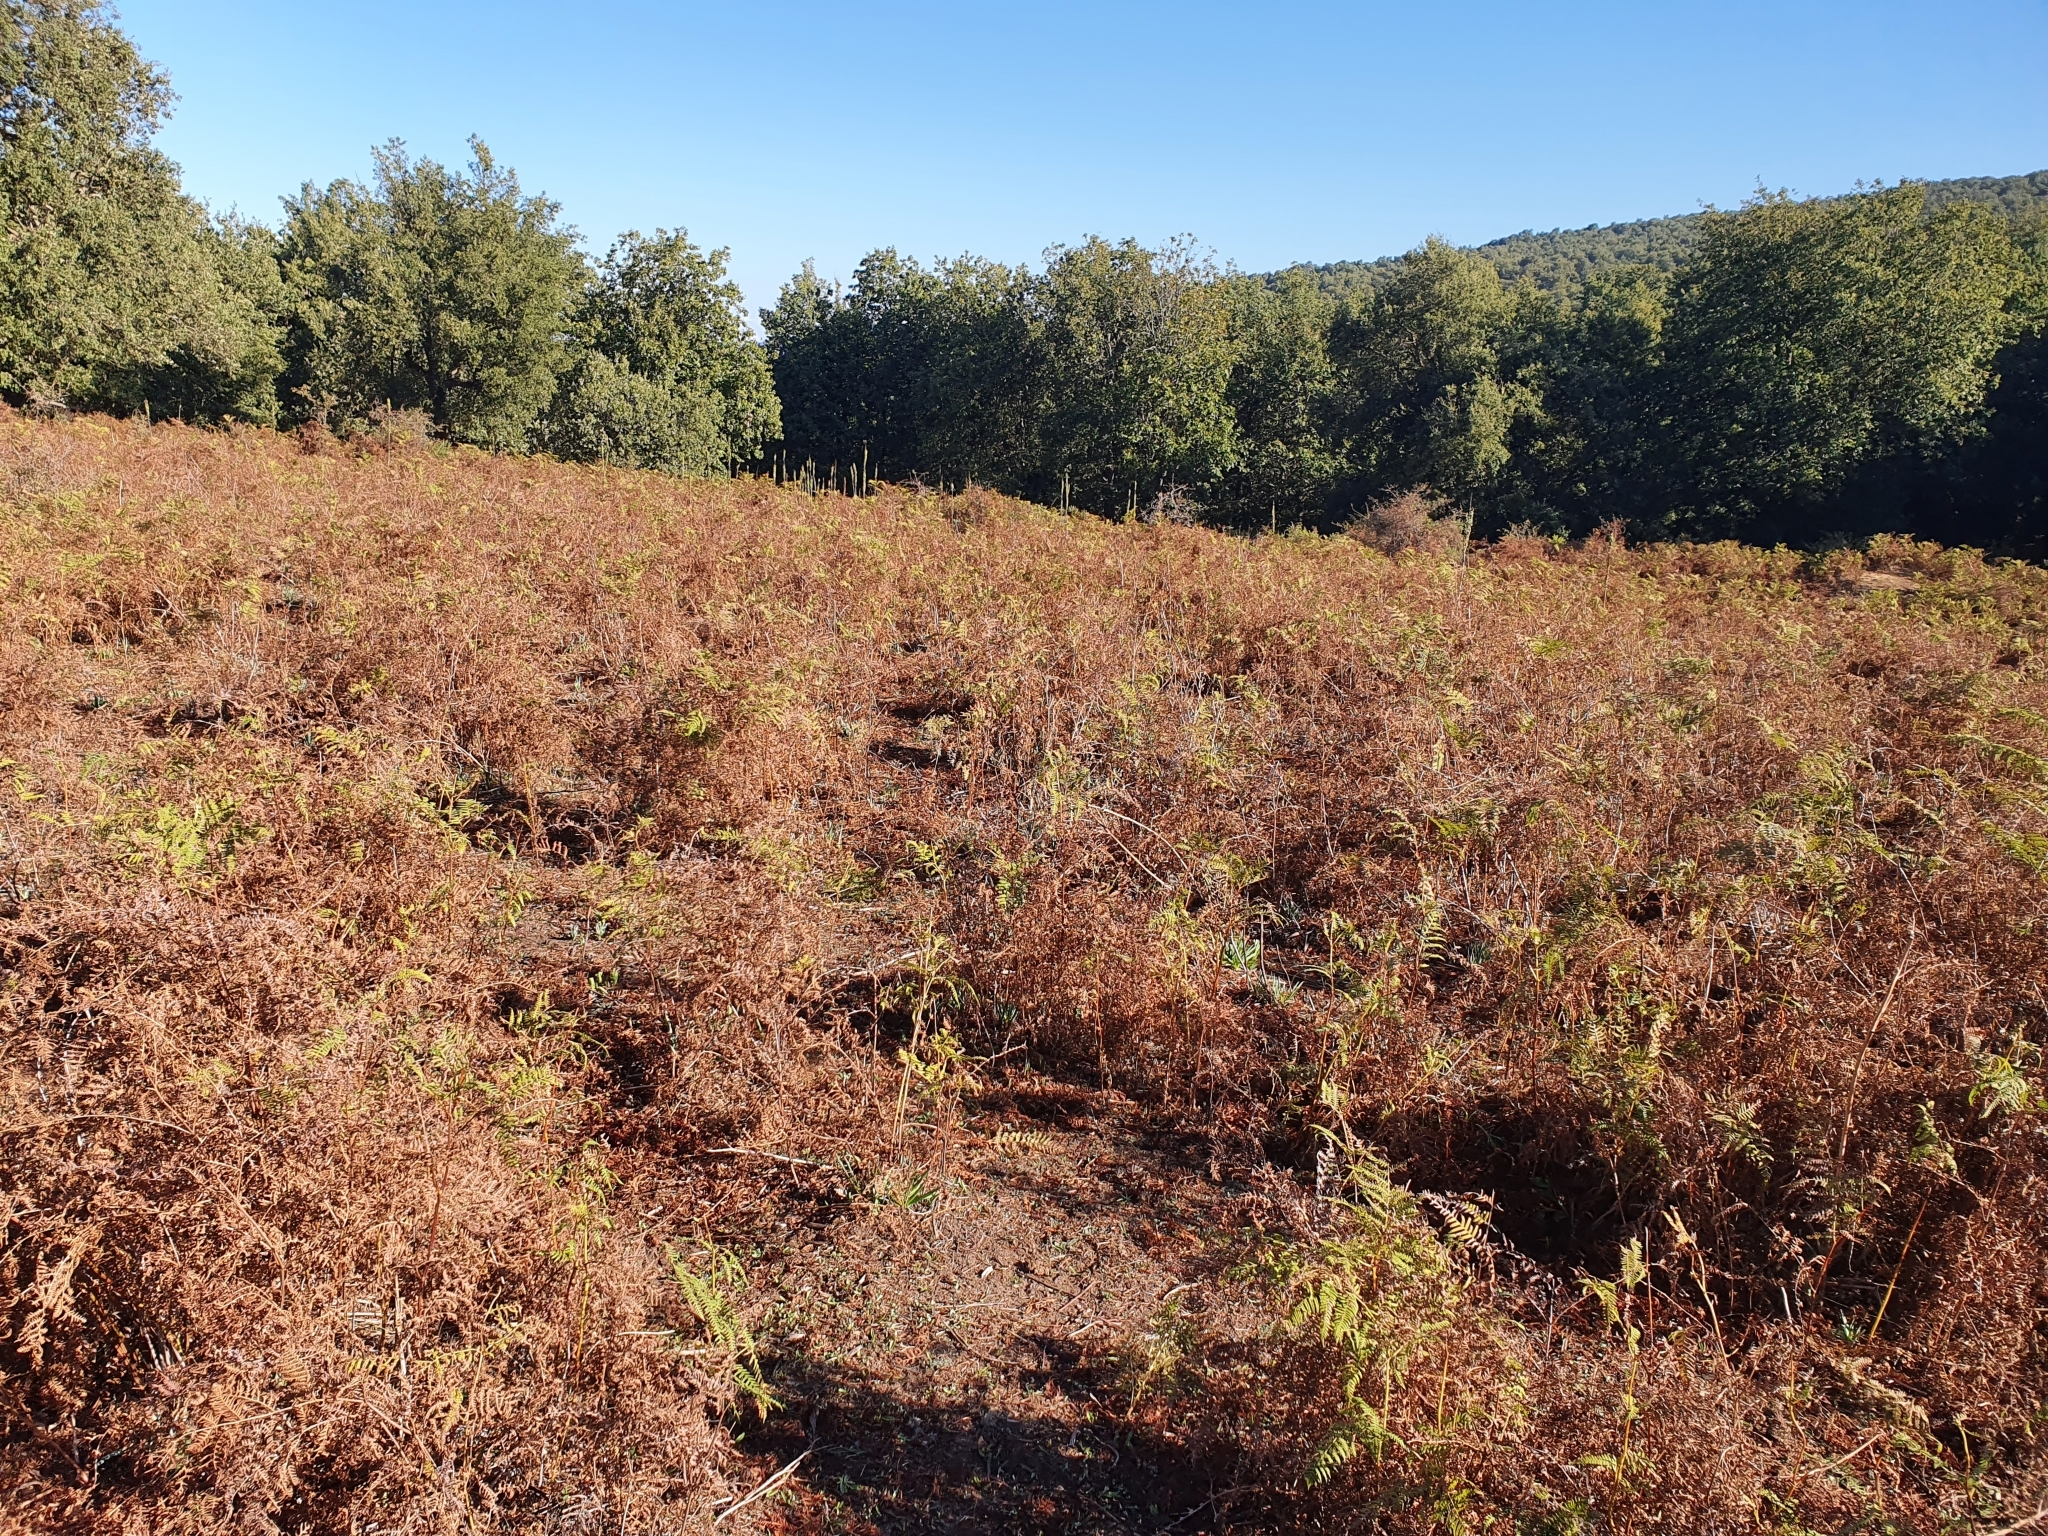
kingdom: Plantae
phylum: Tracheophyta
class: Polypodiopsida
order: Polypodiales
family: Dennstaedtiaceae
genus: Pteridium
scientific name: Pteridium aquilinum
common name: Bracken
